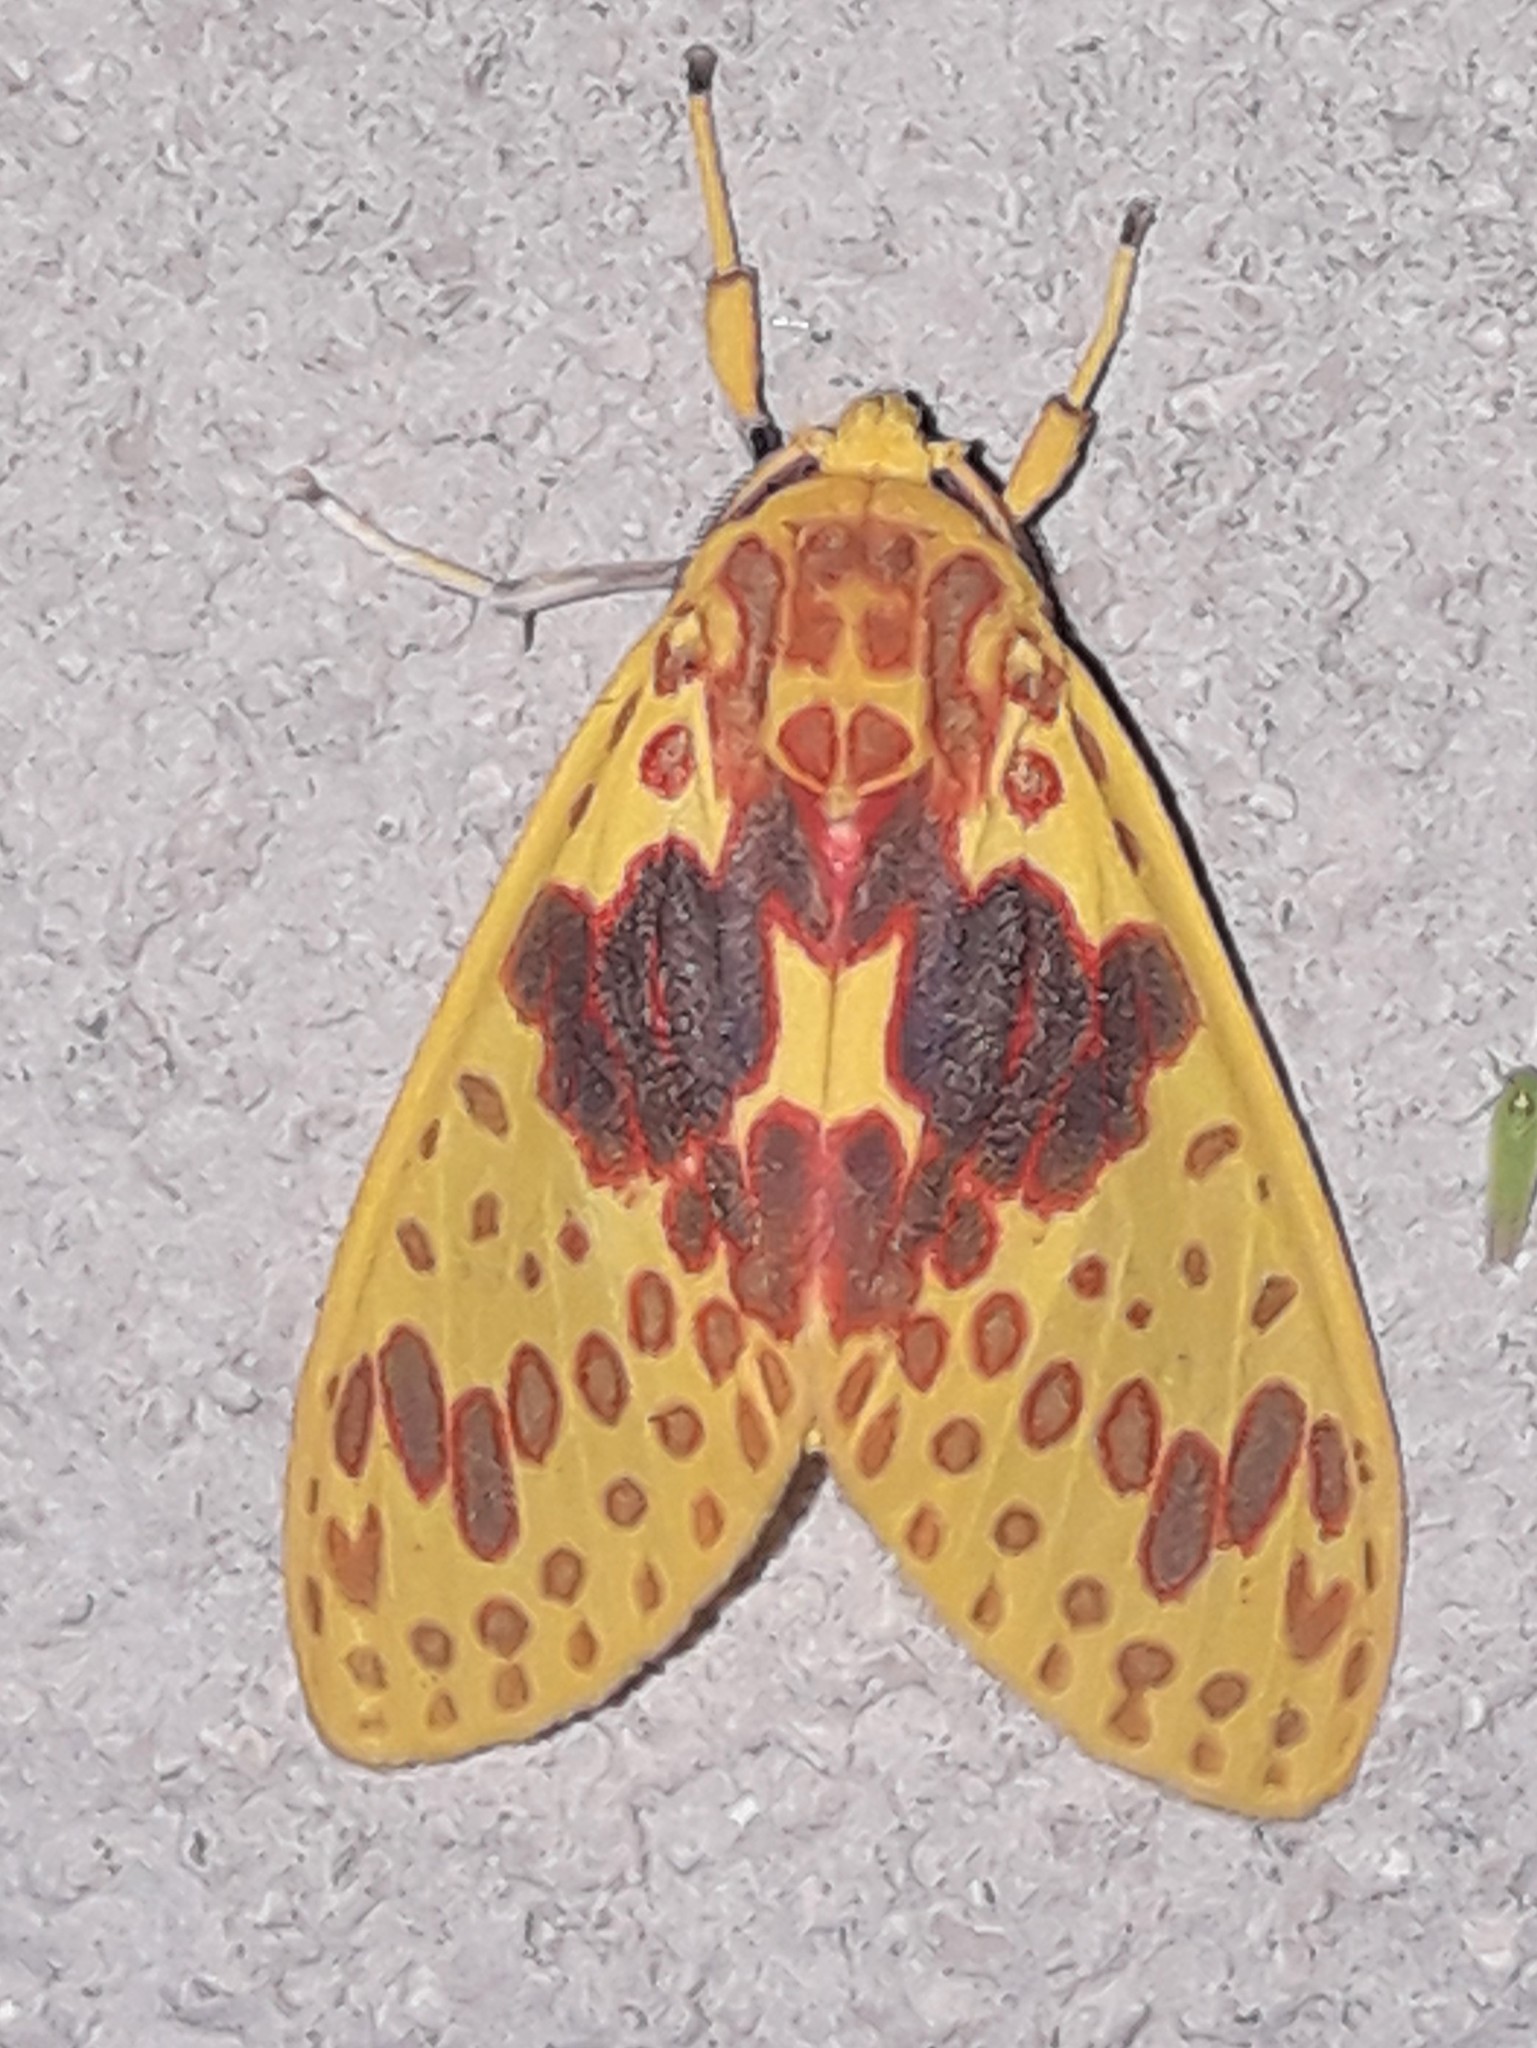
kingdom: Animalia
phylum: Arthropoda
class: Insecta
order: Lepidoptera
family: Erebidae
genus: Amaxia
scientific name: Amaxia
